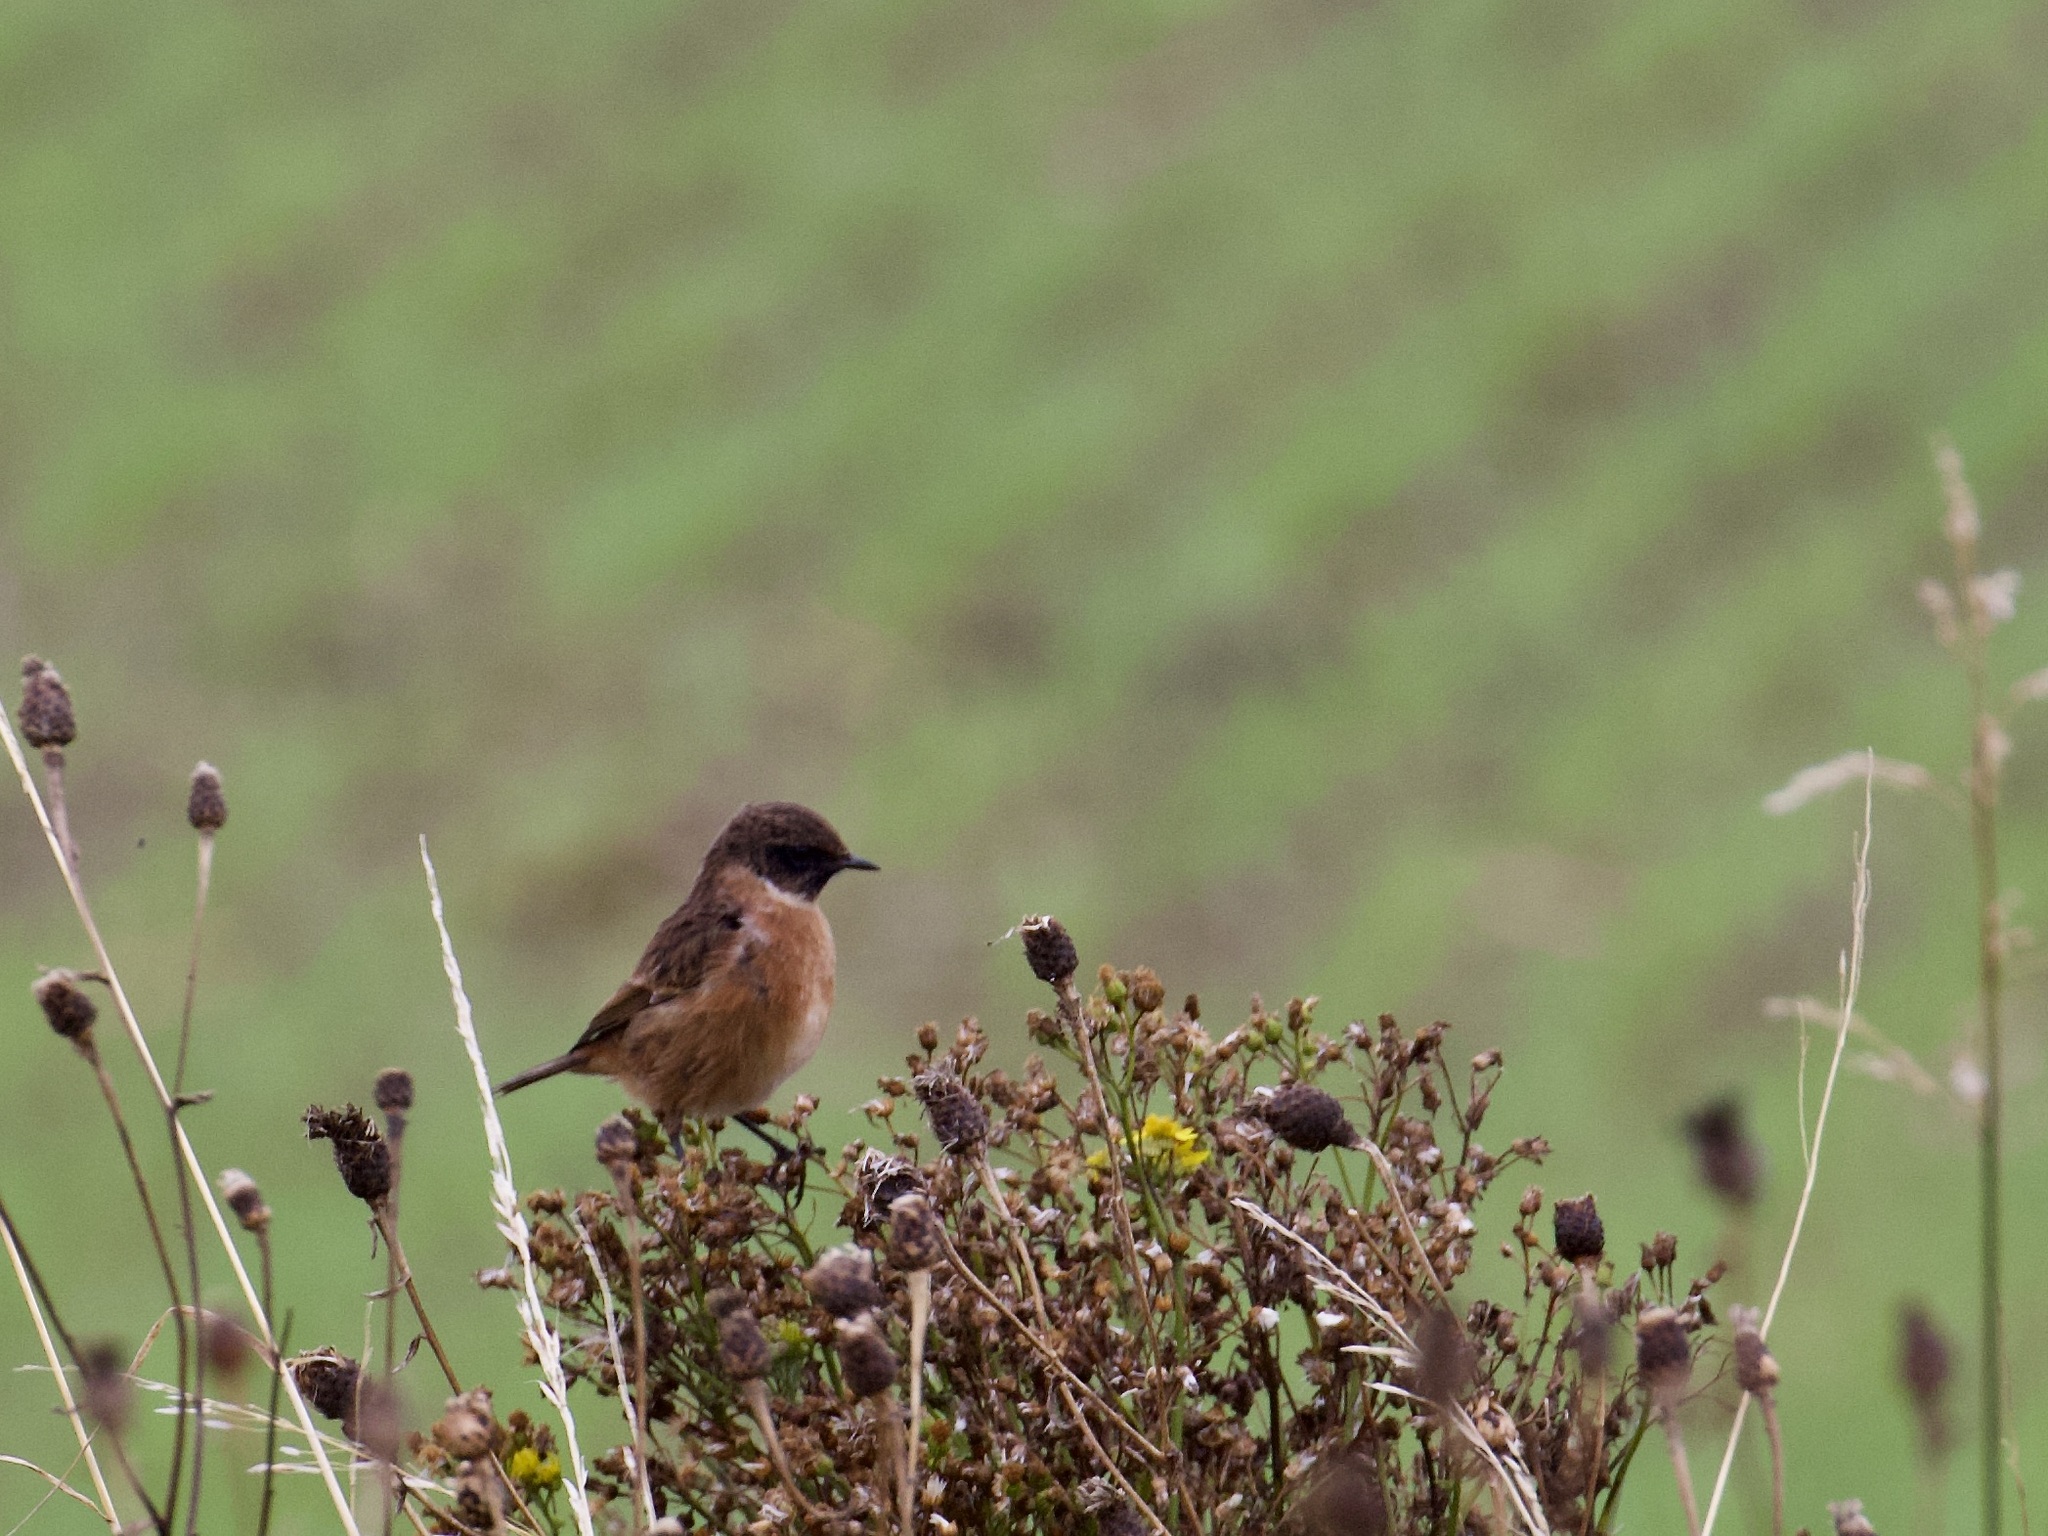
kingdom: Animalia
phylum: Chordata
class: Aves
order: Passeriformes
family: Muscicapidae
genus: Saxicola
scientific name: Saxicola rubicola
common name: European stonechat
